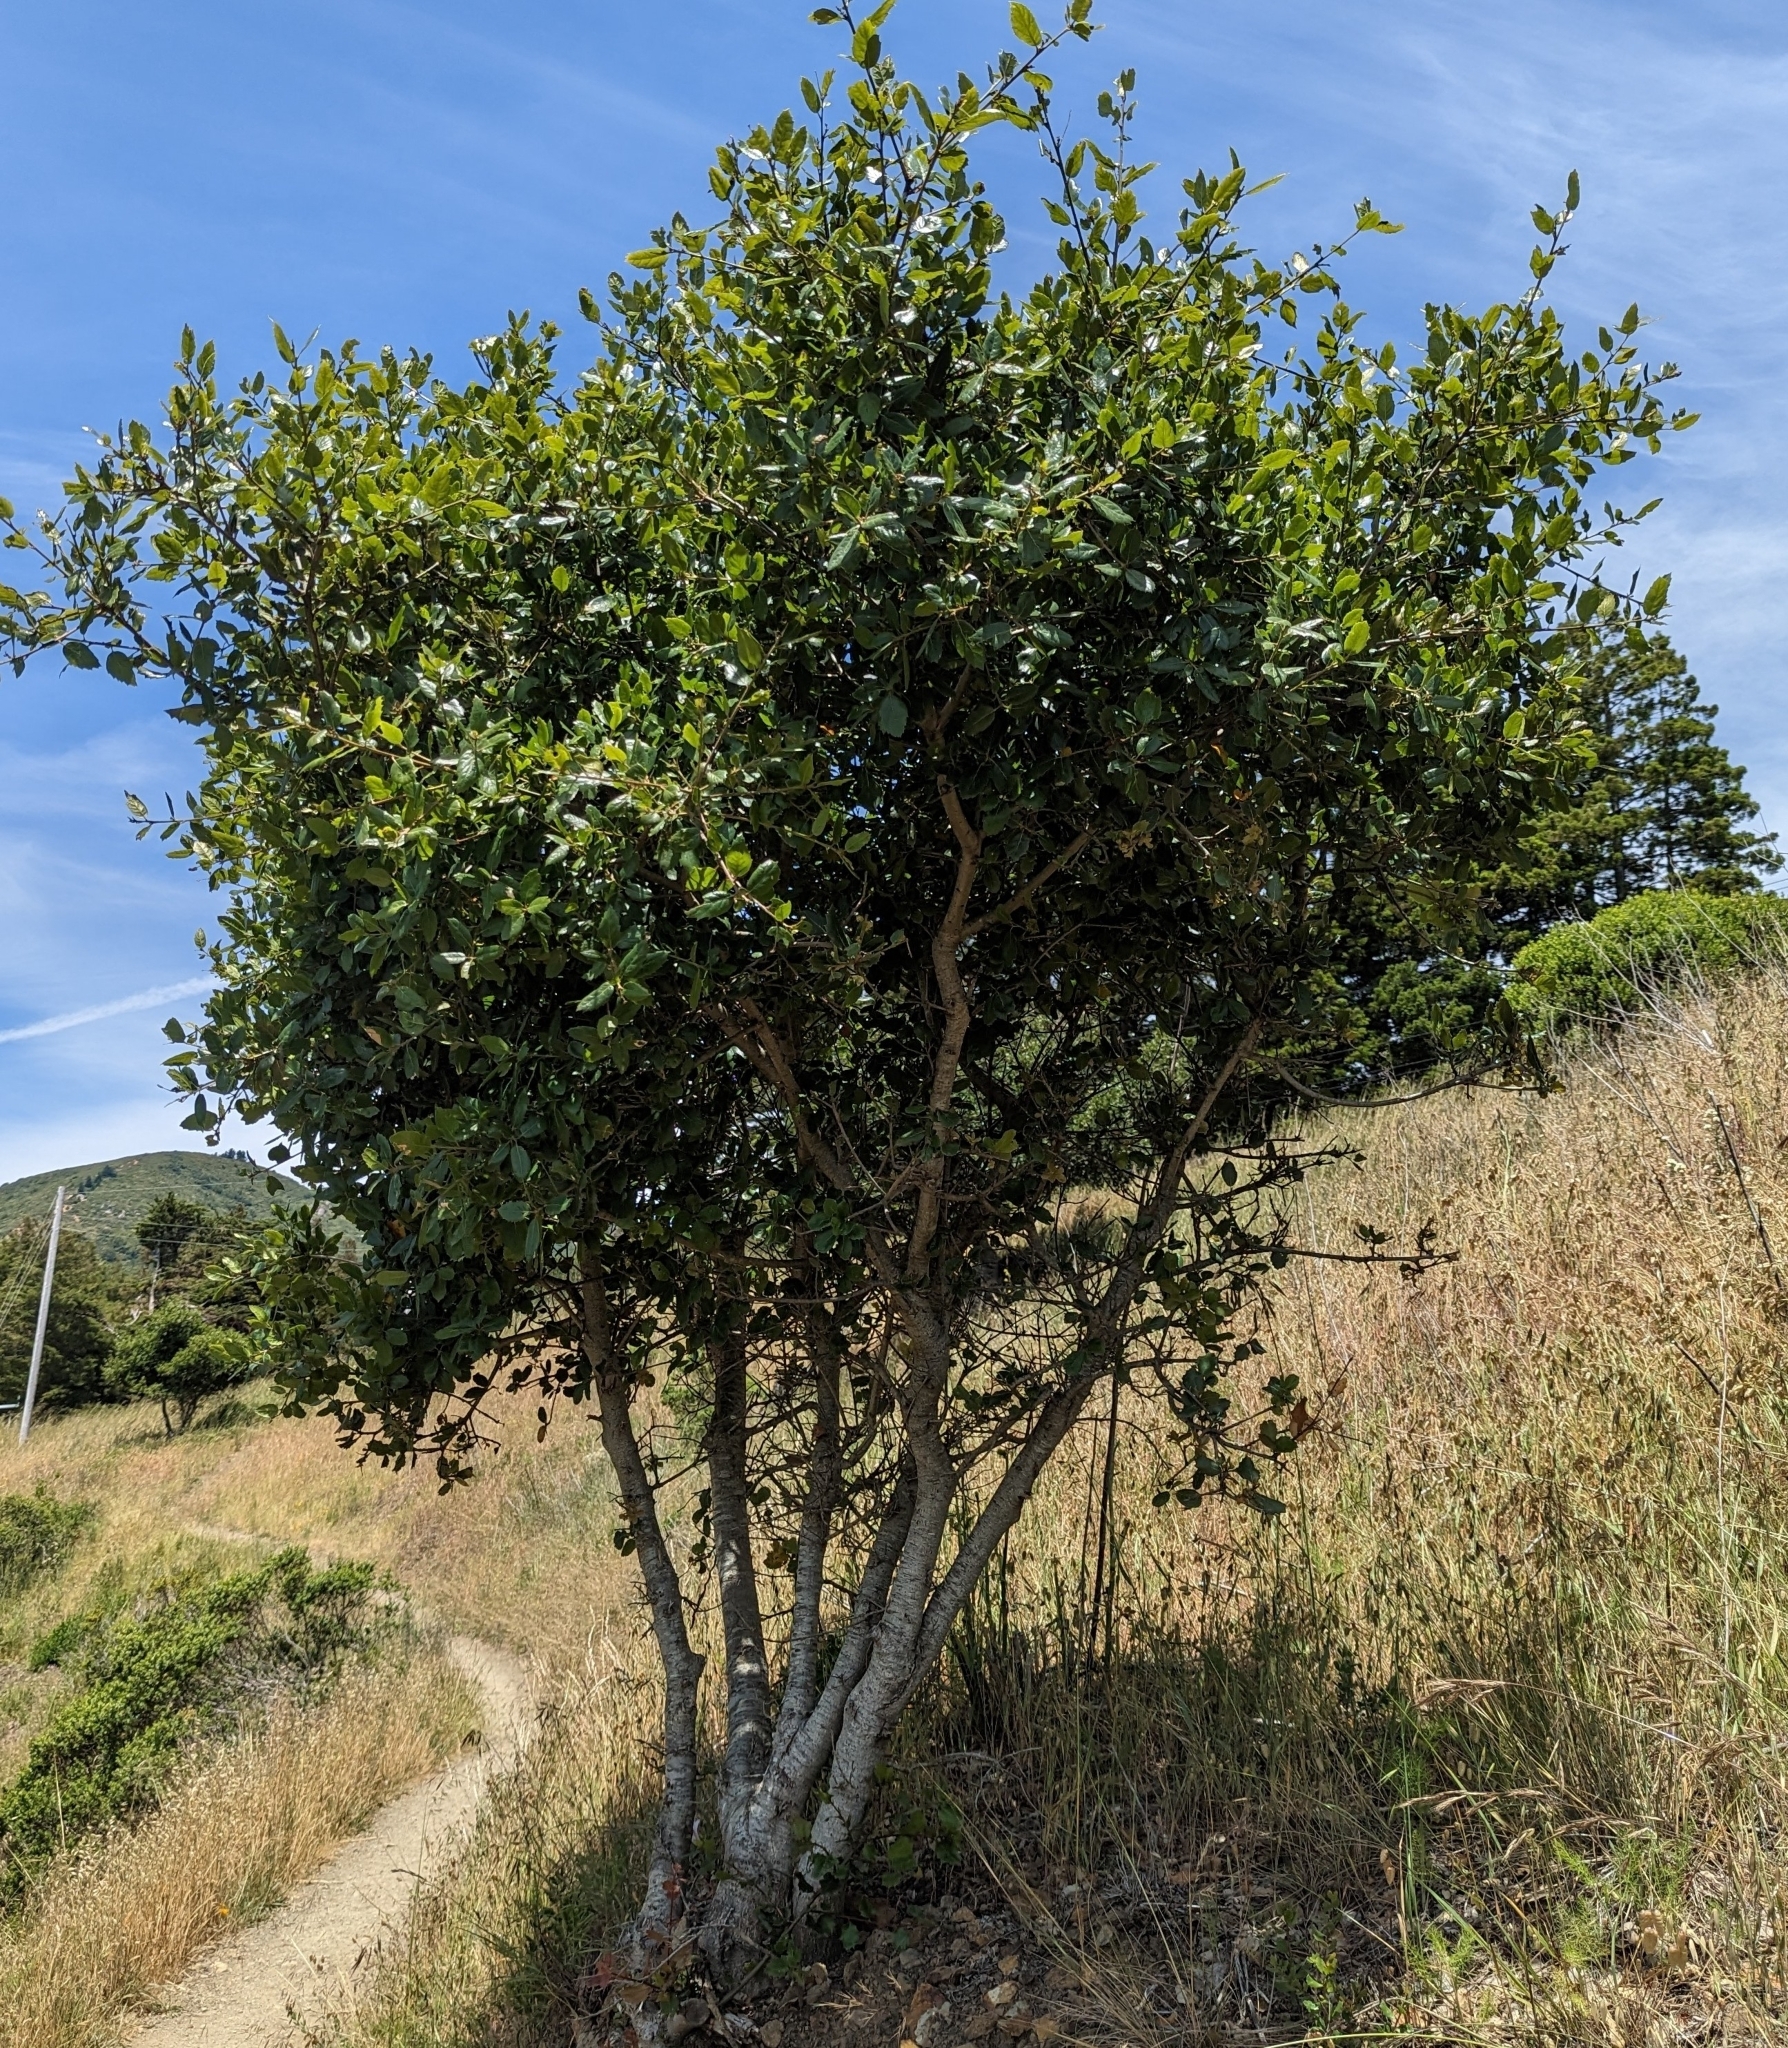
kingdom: Plantae
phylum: Tracheophyta
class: Magnoliopsida
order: Fagales
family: Fagaceae
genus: Quercus
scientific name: Quercus agrifolia
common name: California live oak
